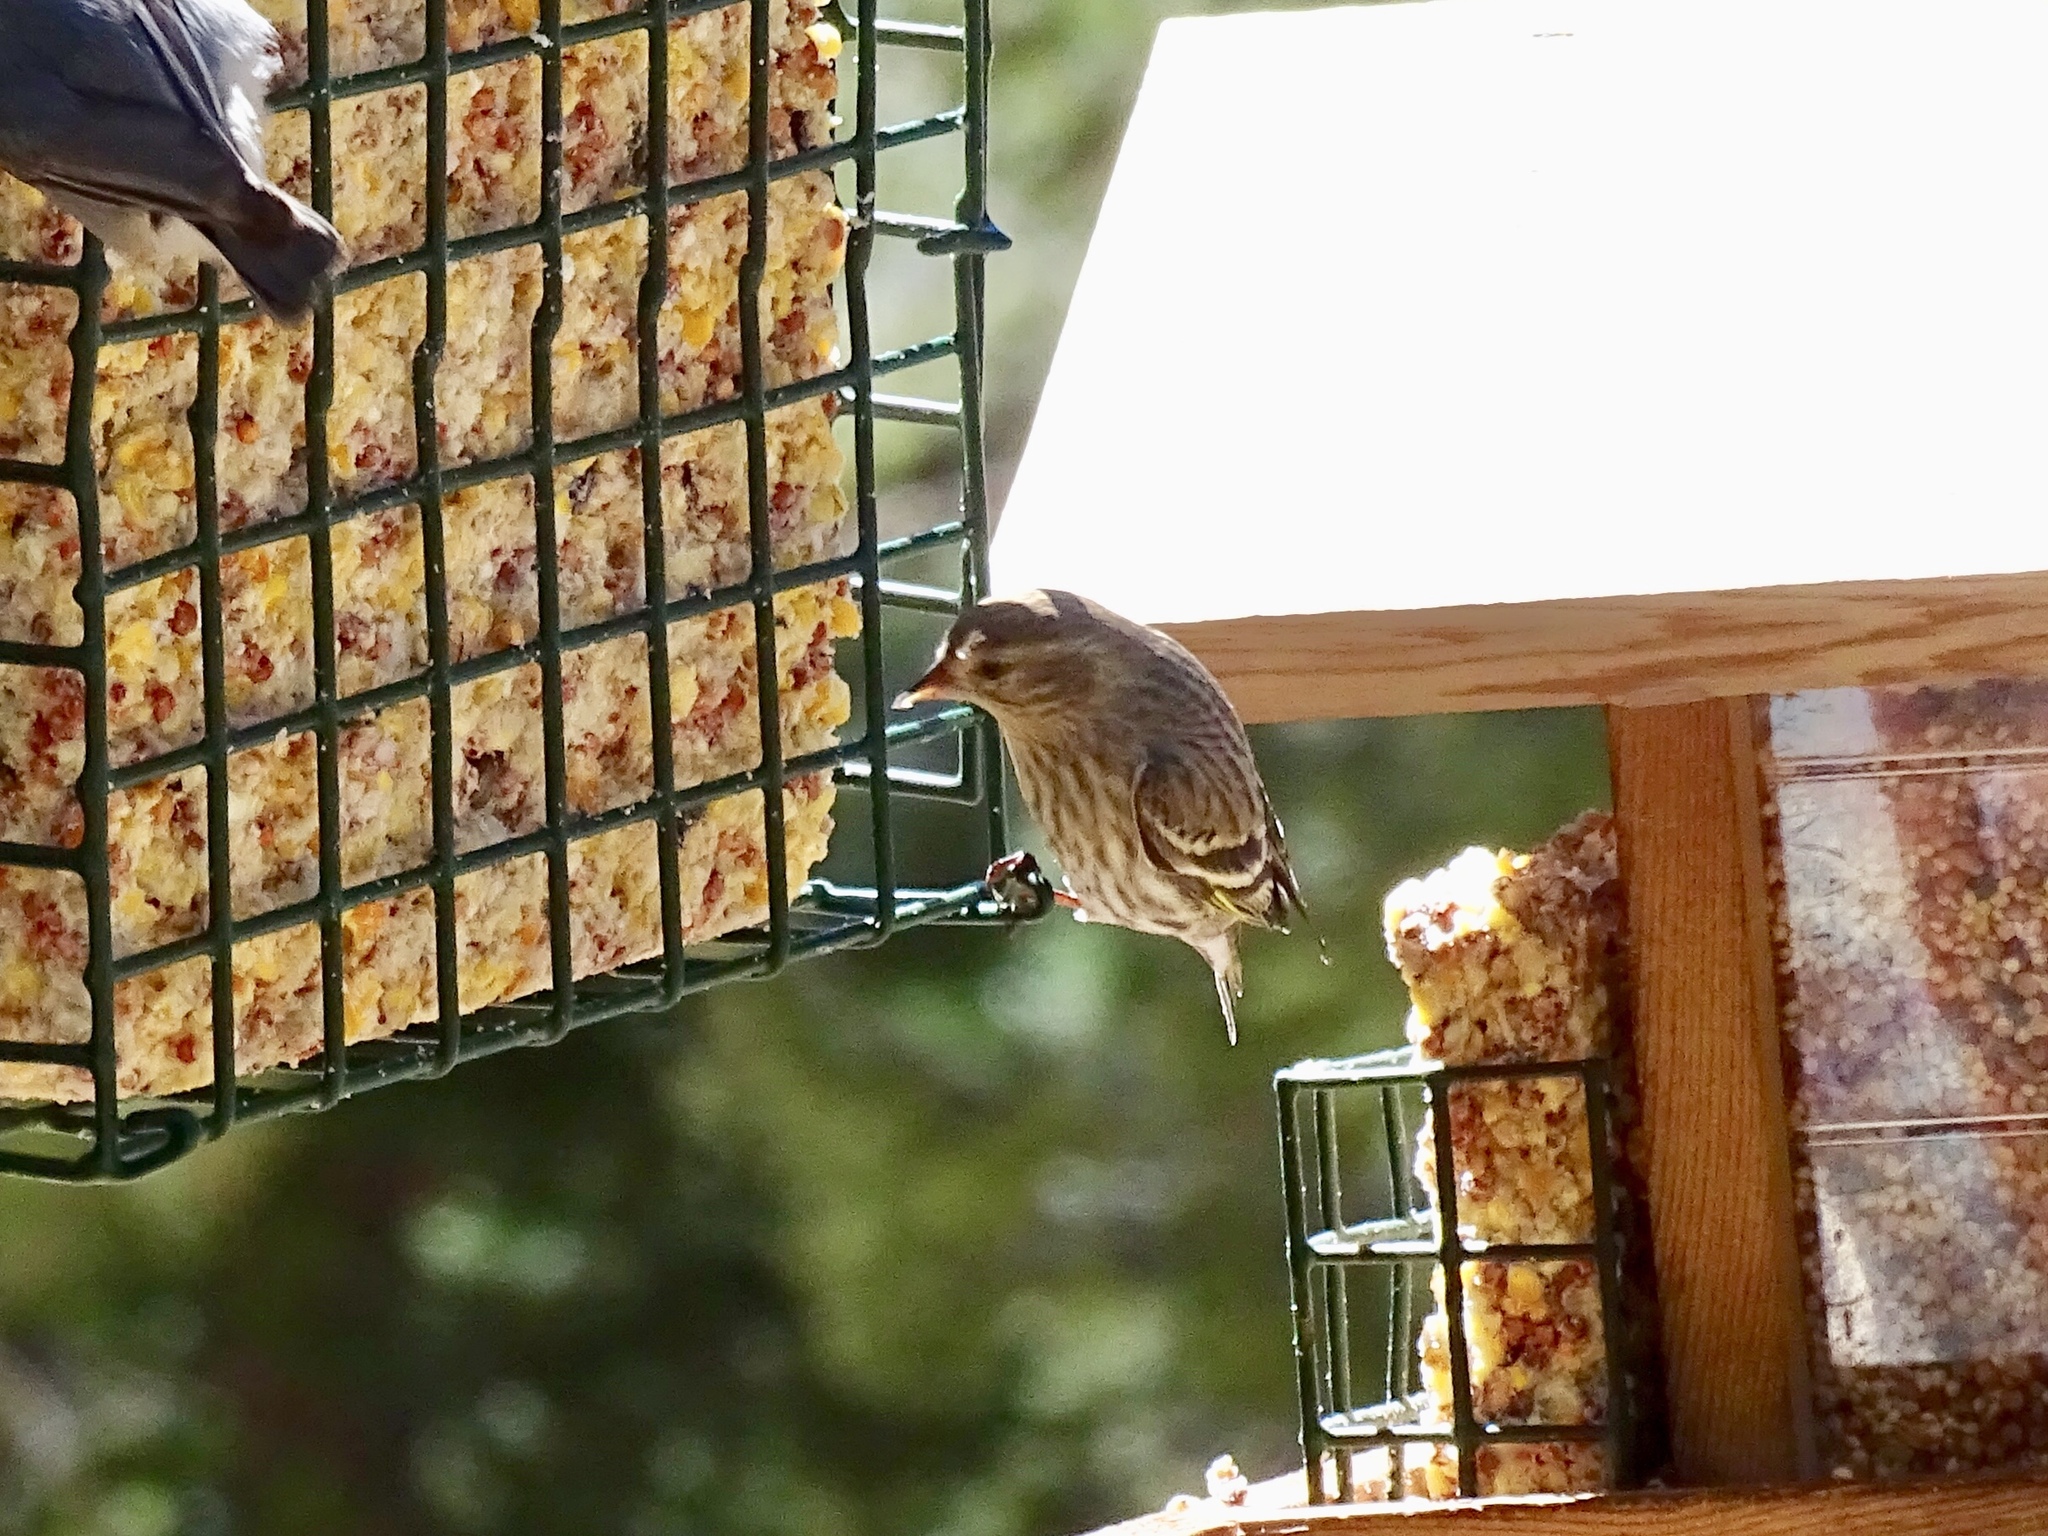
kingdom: Animalia
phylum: Chordata
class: Aves
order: Passeriformes
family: Fringillidae
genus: Spinus
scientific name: Spinus pinus
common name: Pine siskin
